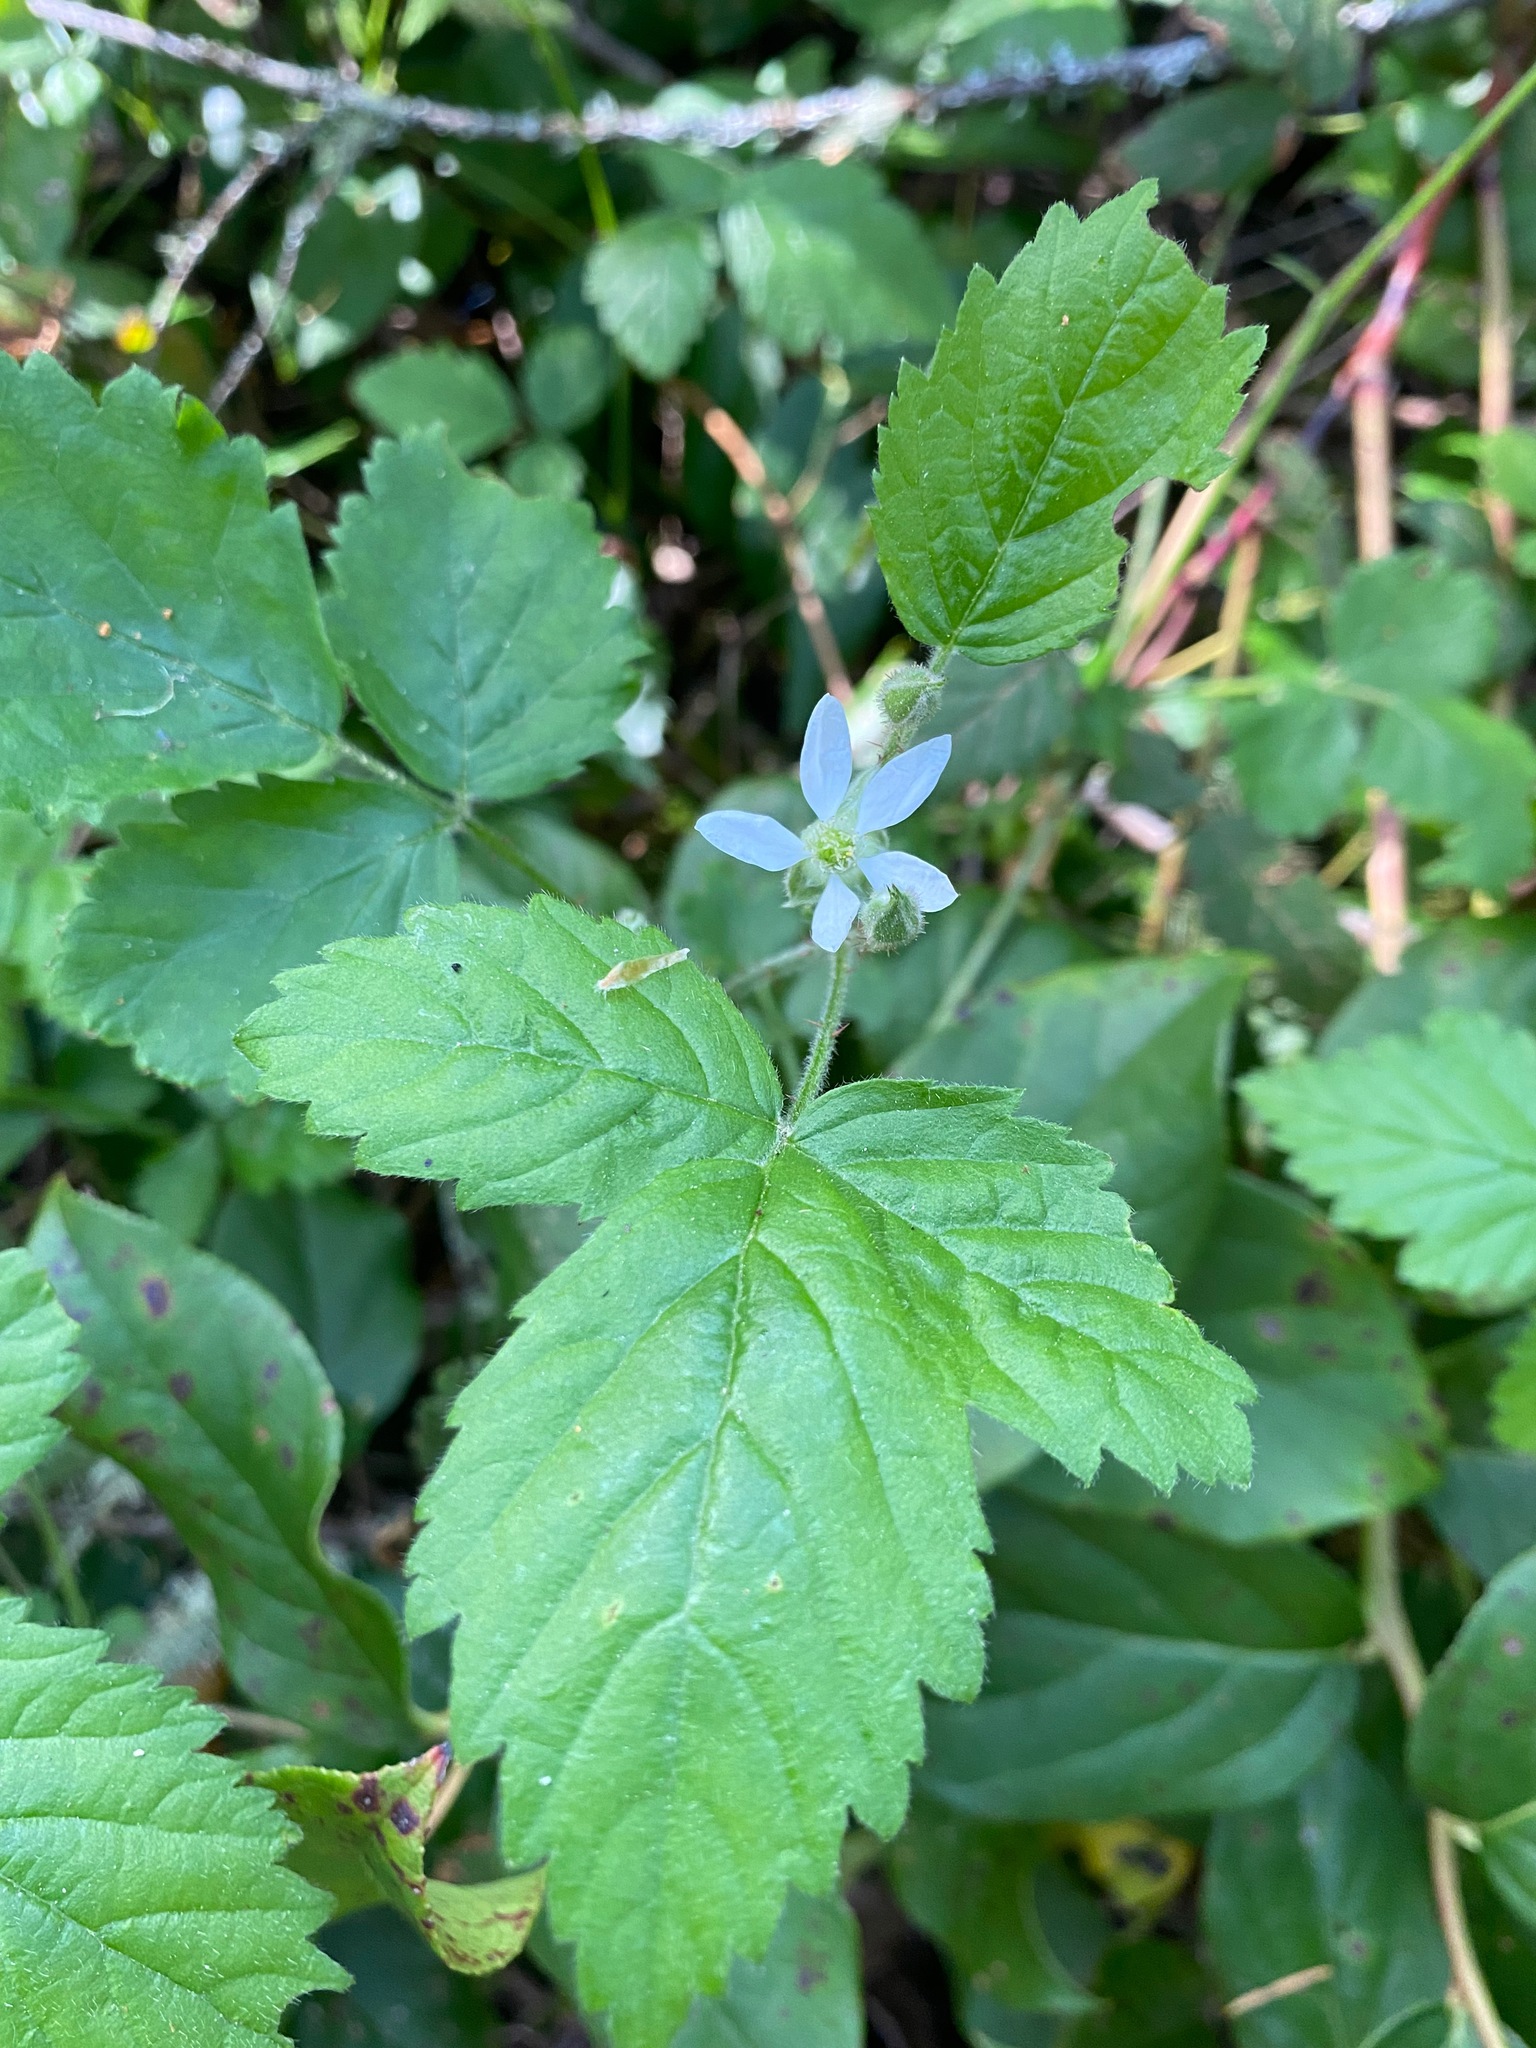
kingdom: Plantae
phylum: Tracheophyta
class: Magnoliopsida
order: Rosales
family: Rosaceae
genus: Rubus
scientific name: Rubus ursinus
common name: Pacific blackberry
